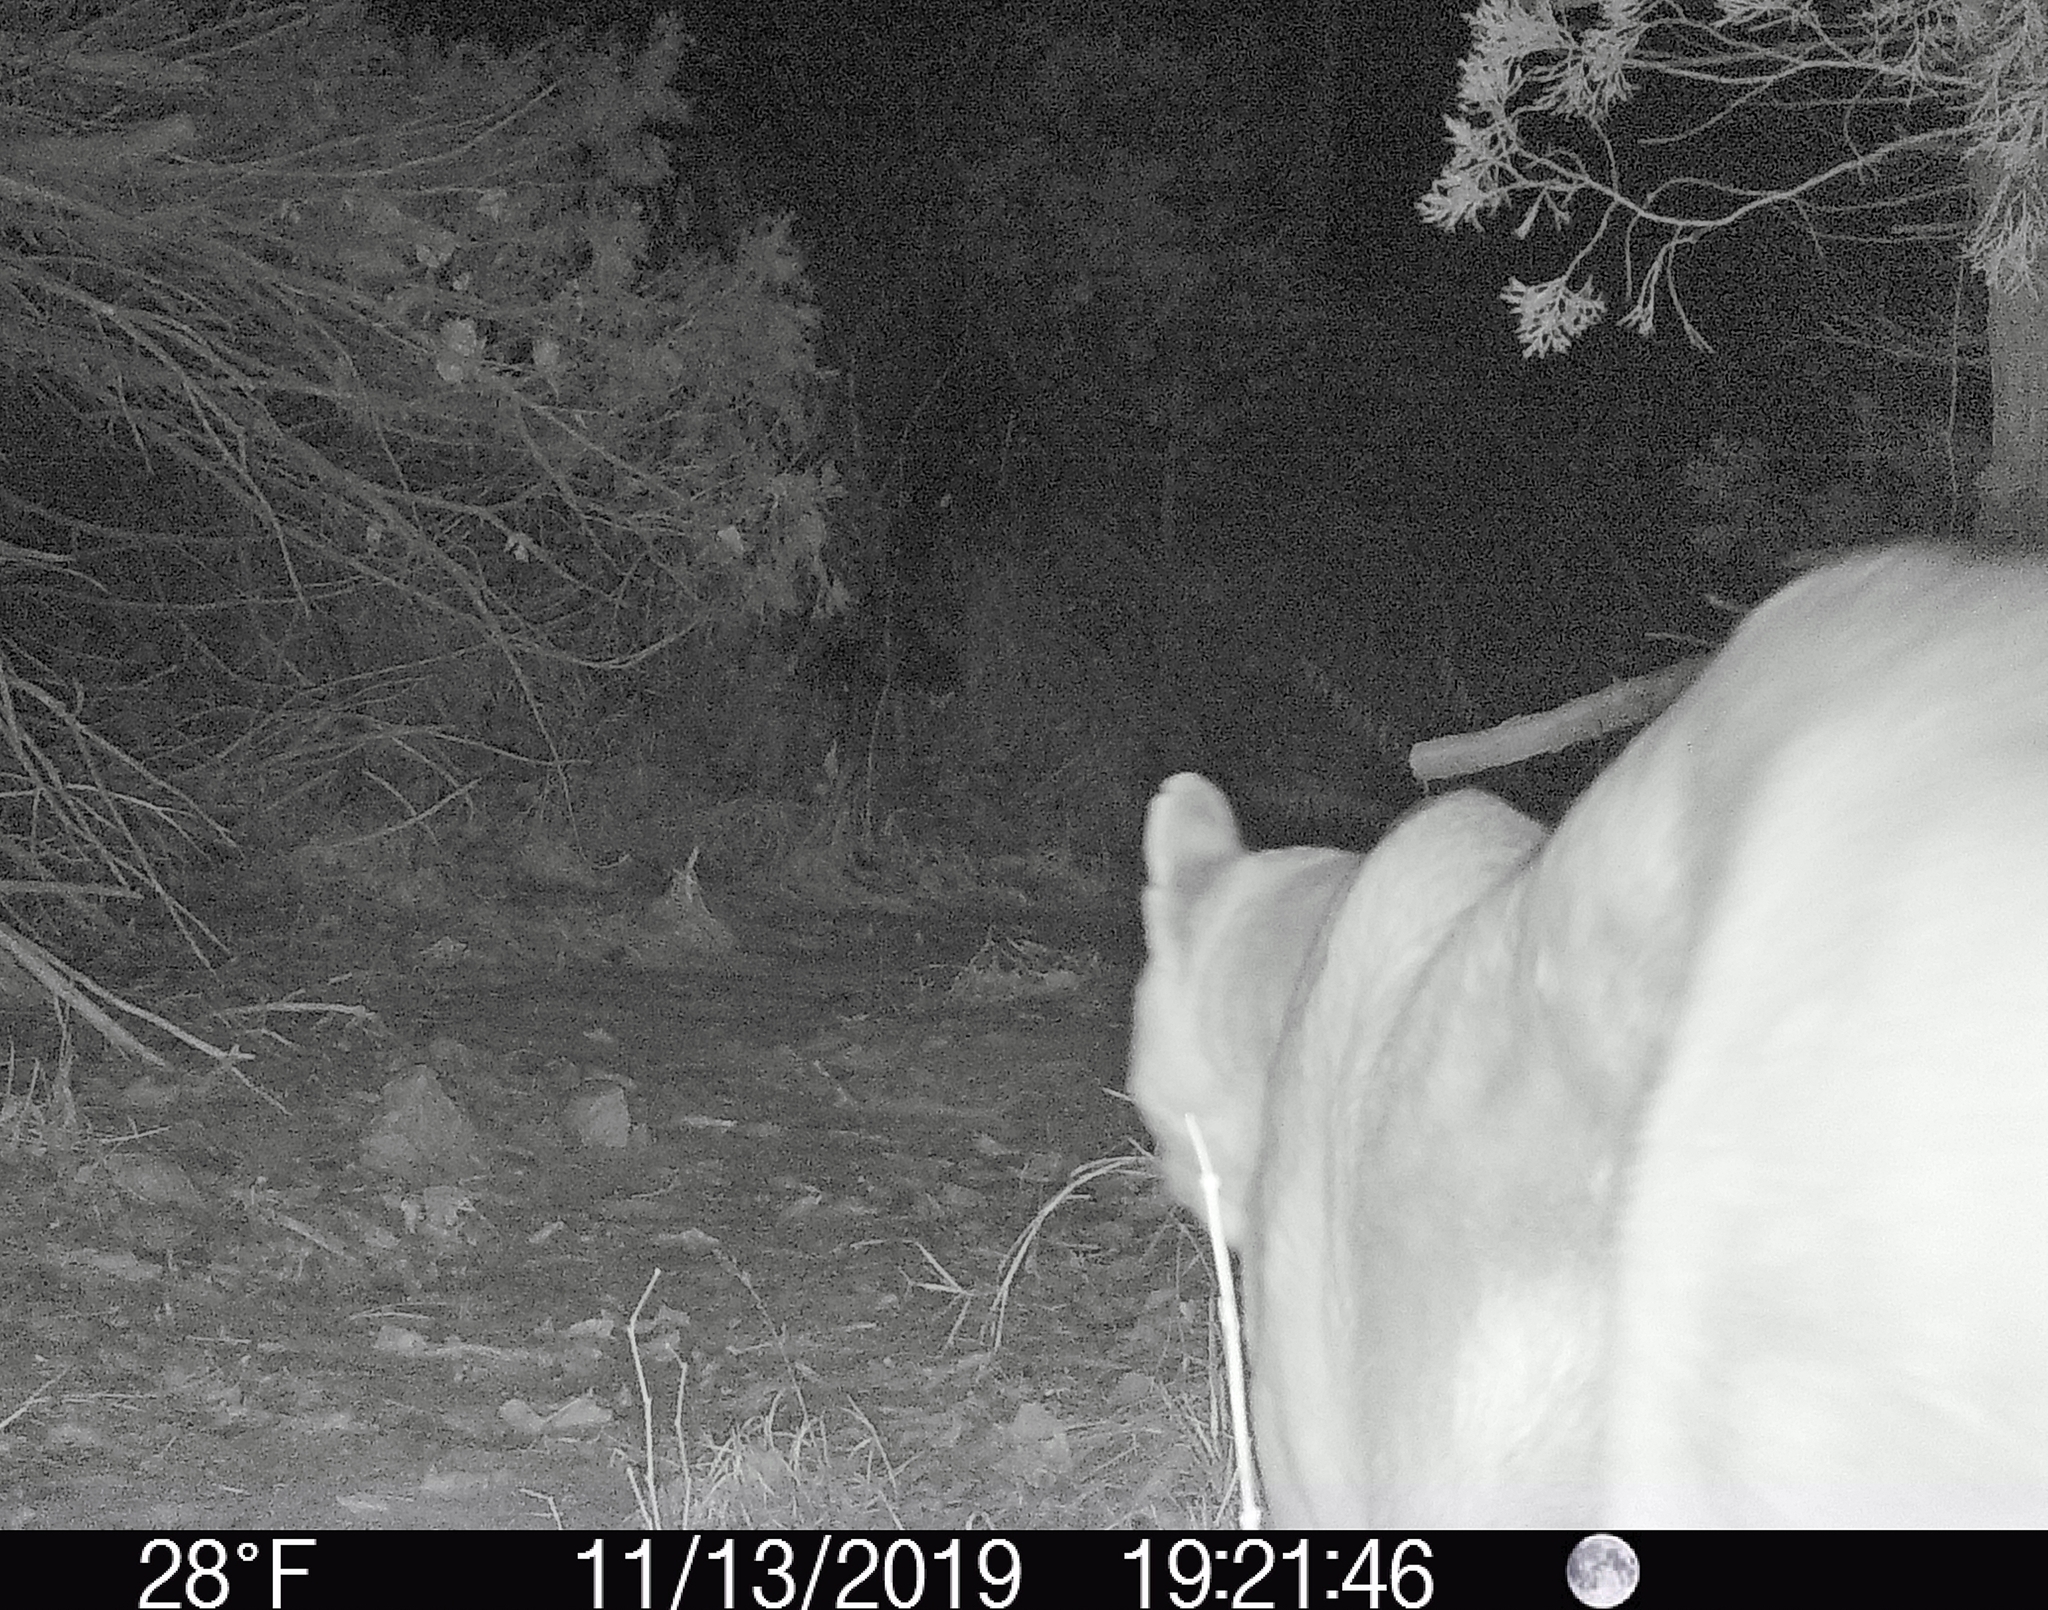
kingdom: Animalia
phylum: Chordata
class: Mammalia
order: Carnivora
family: Felidae
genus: Puma
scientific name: Puma concolor
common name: Puma
